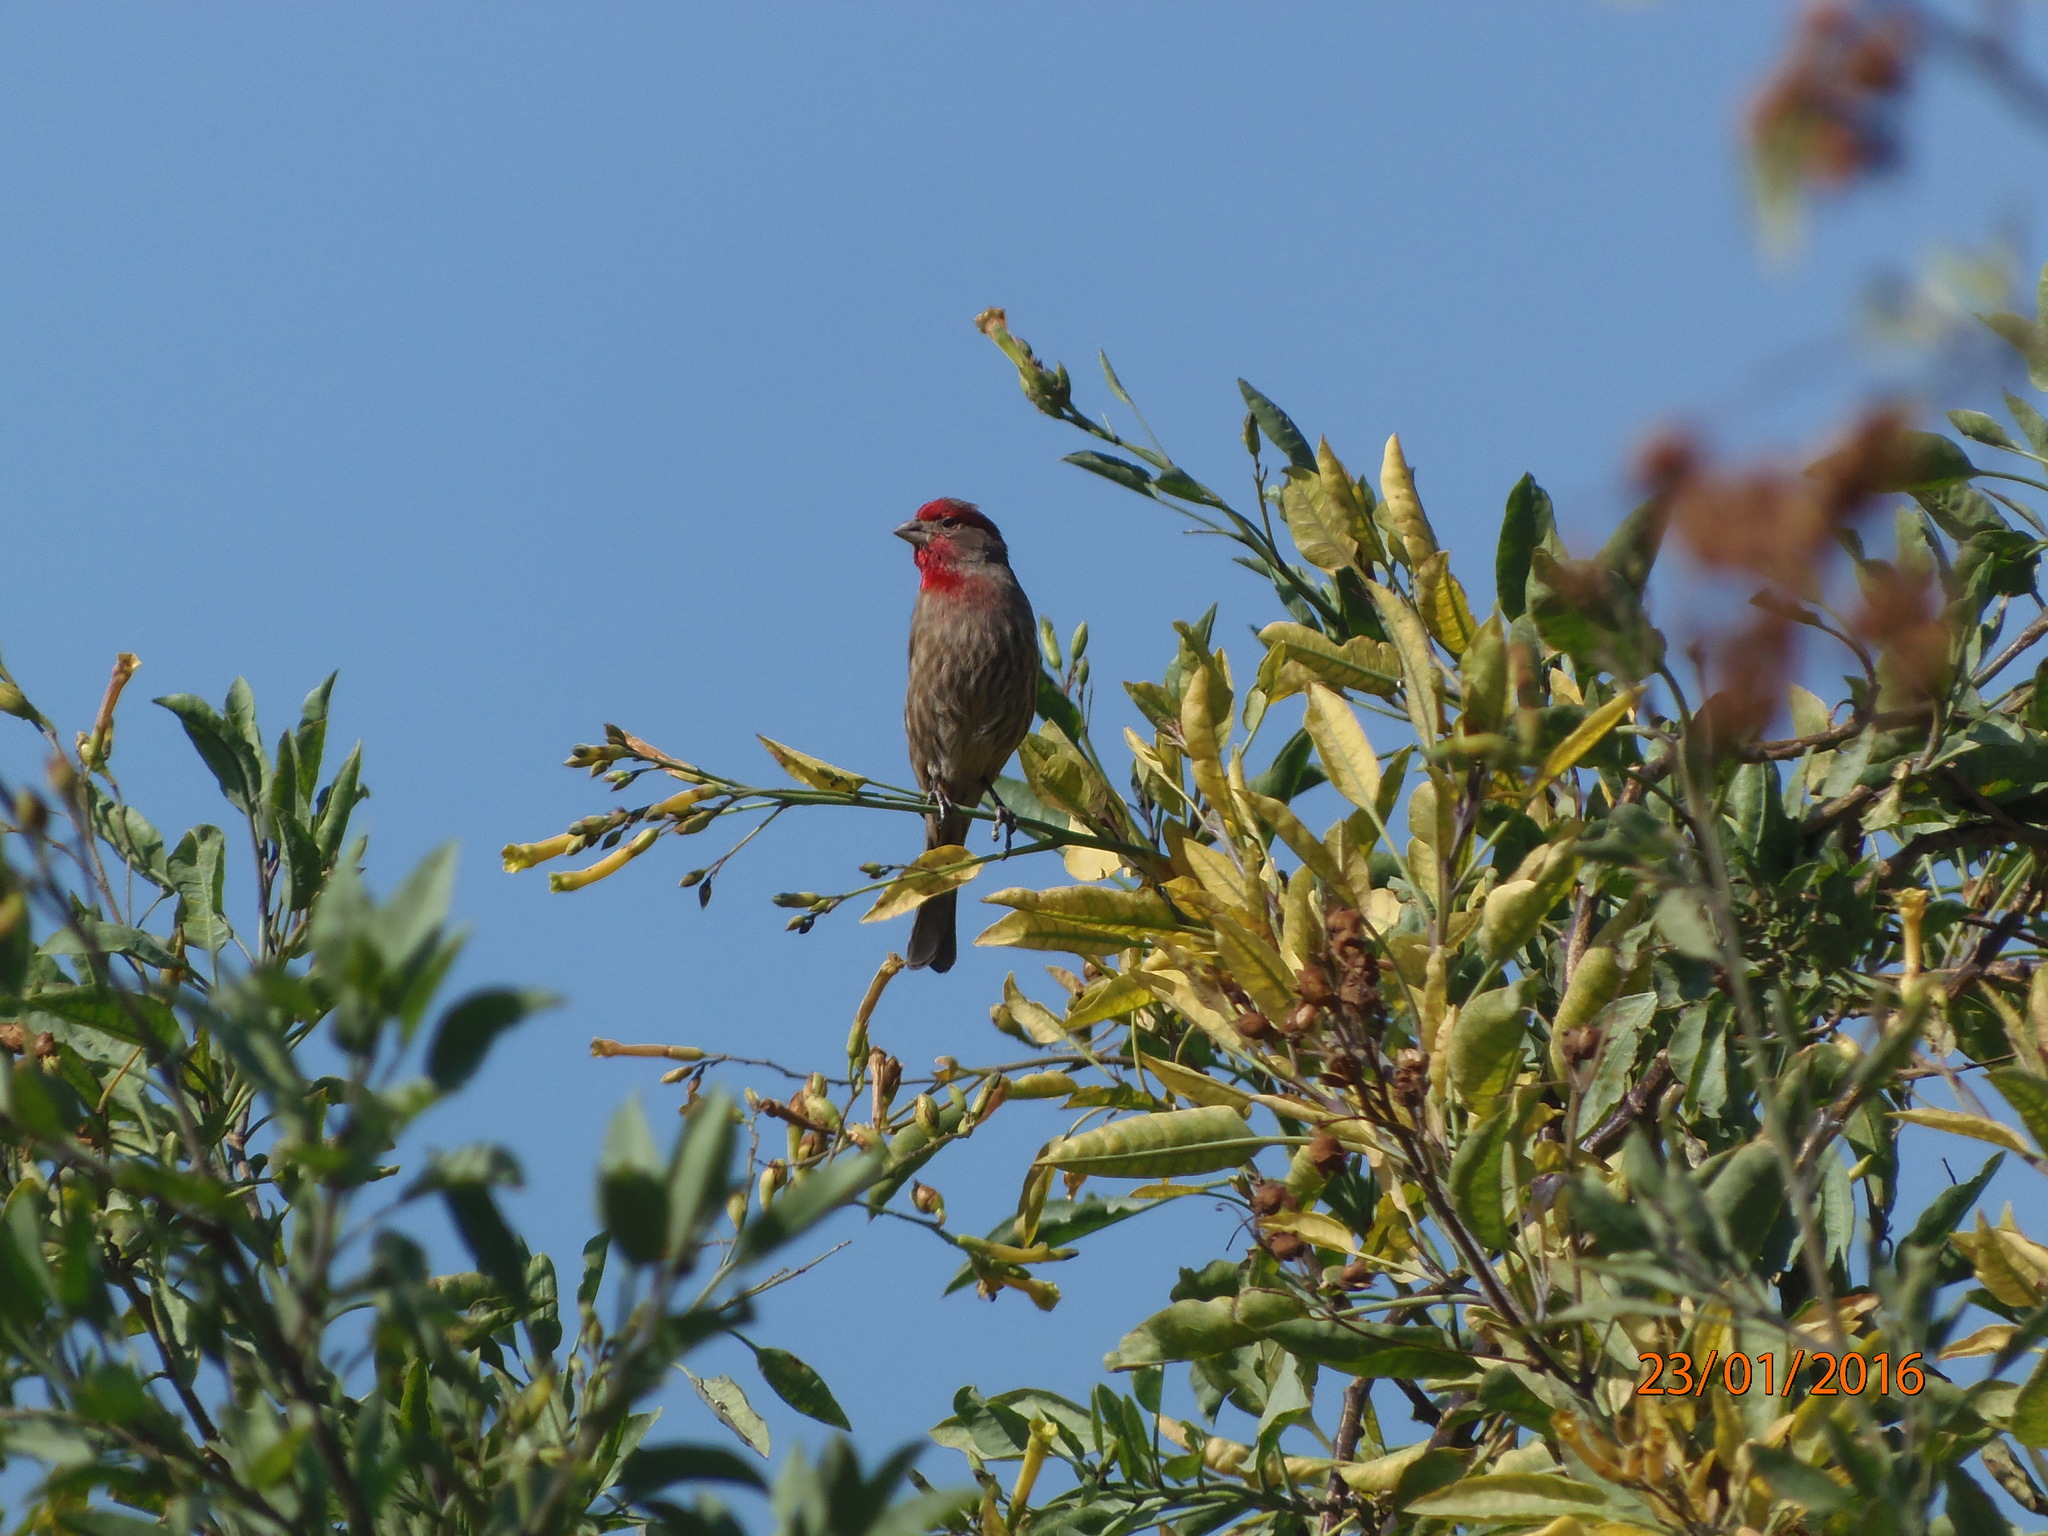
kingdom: Animalia
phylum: Chordata
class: Aves
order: Passeriformes
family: Fringillidae
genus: Haemorhous
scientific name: Haemorhous mexicanus
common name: House finch
